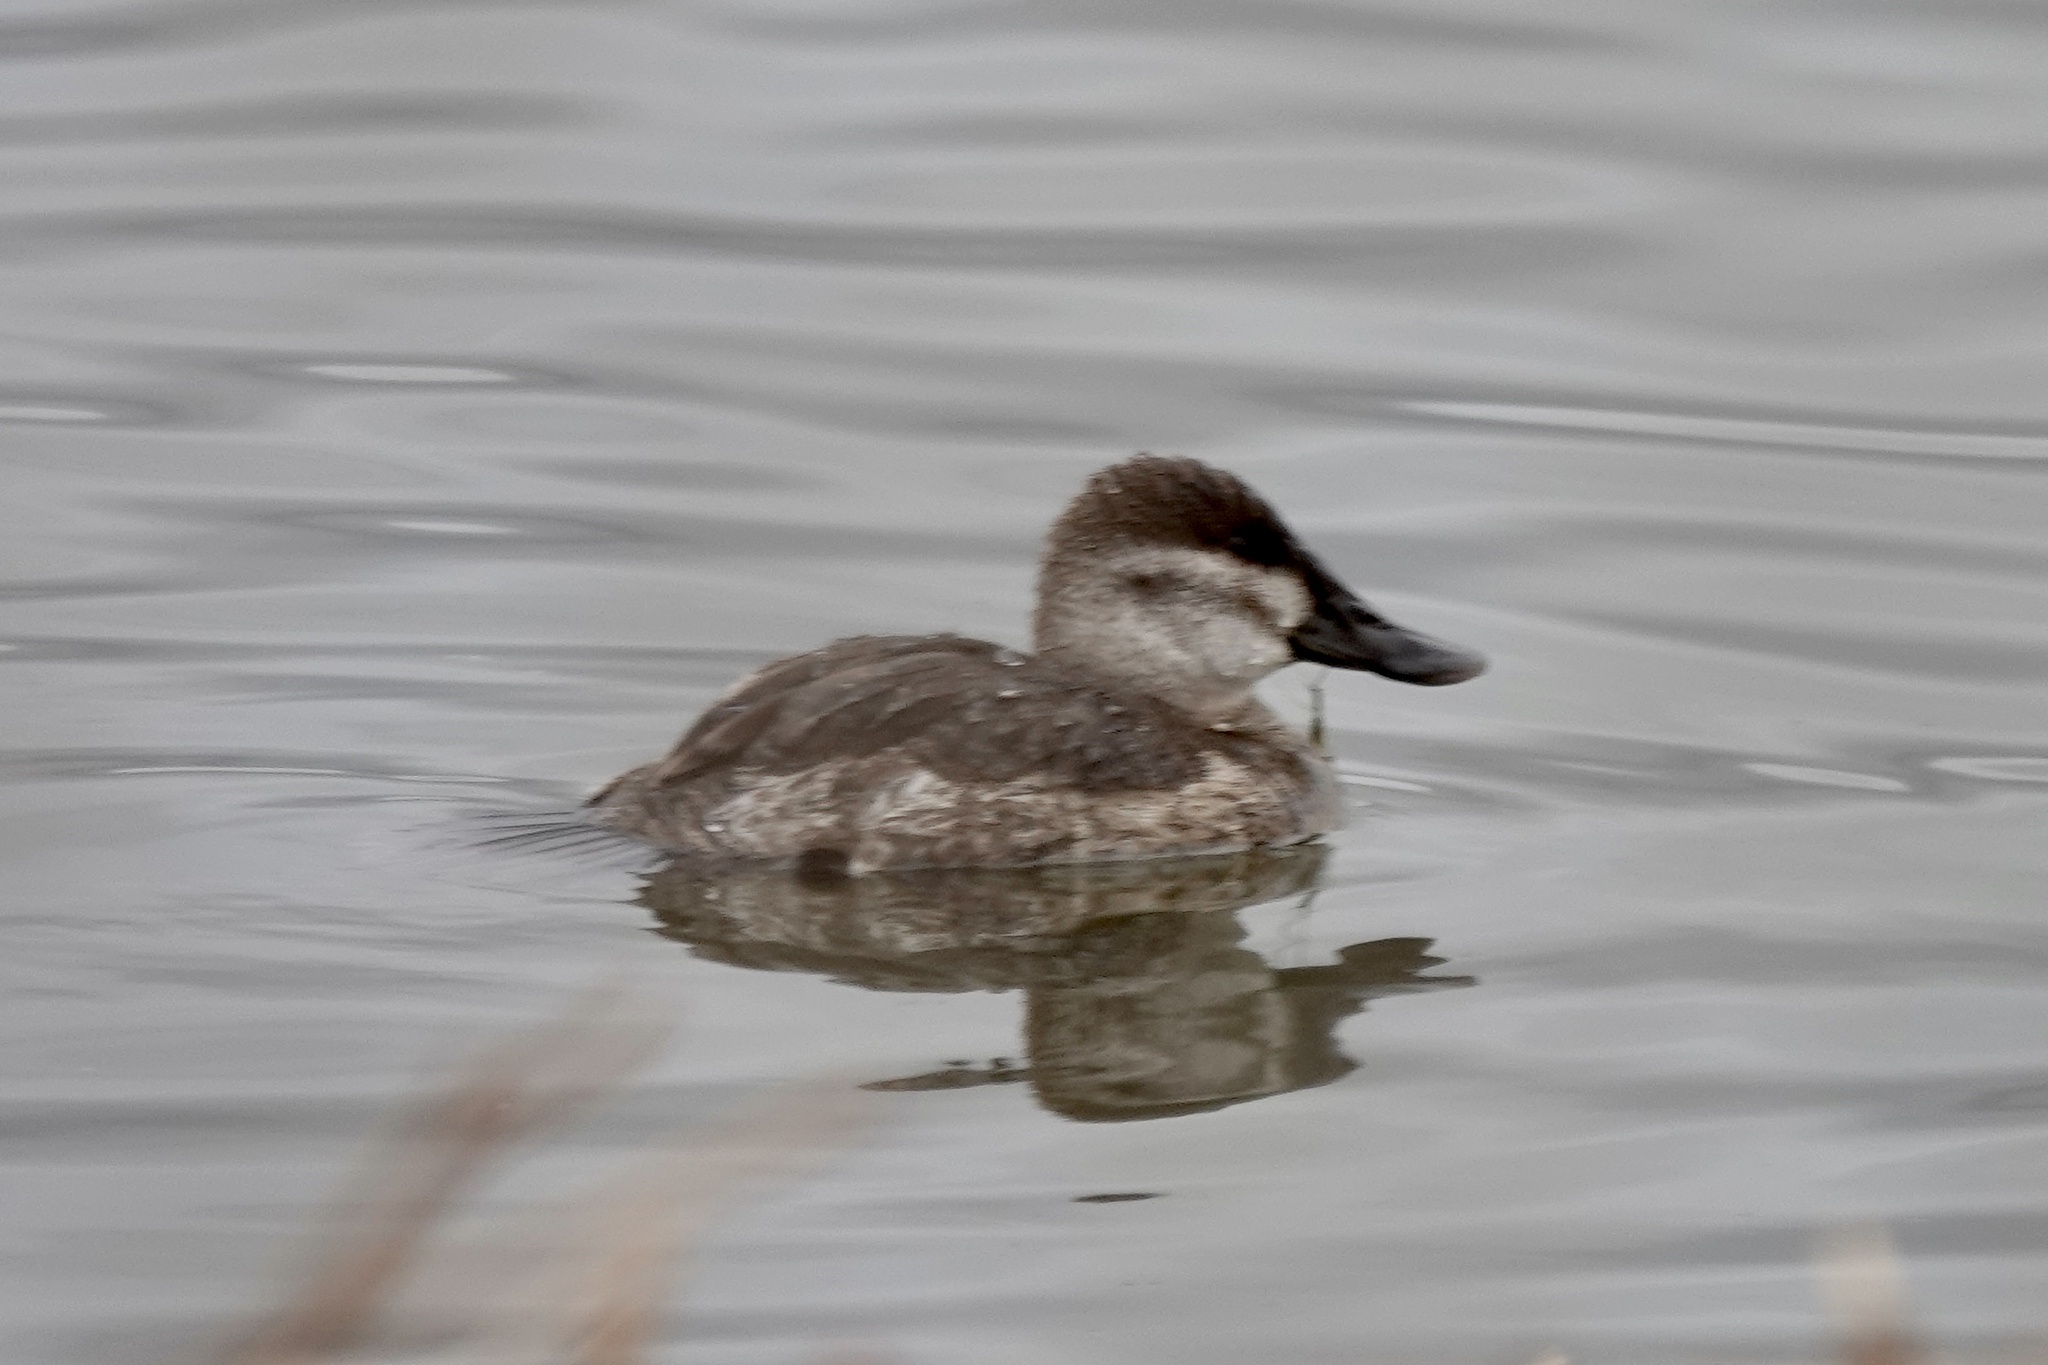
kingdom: Animalia
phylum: Chordata
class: Aves
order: Anseriformes
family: Anatidae
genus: Oxyura
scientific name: Oxyura jamaicensis
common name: Ruddy duck
